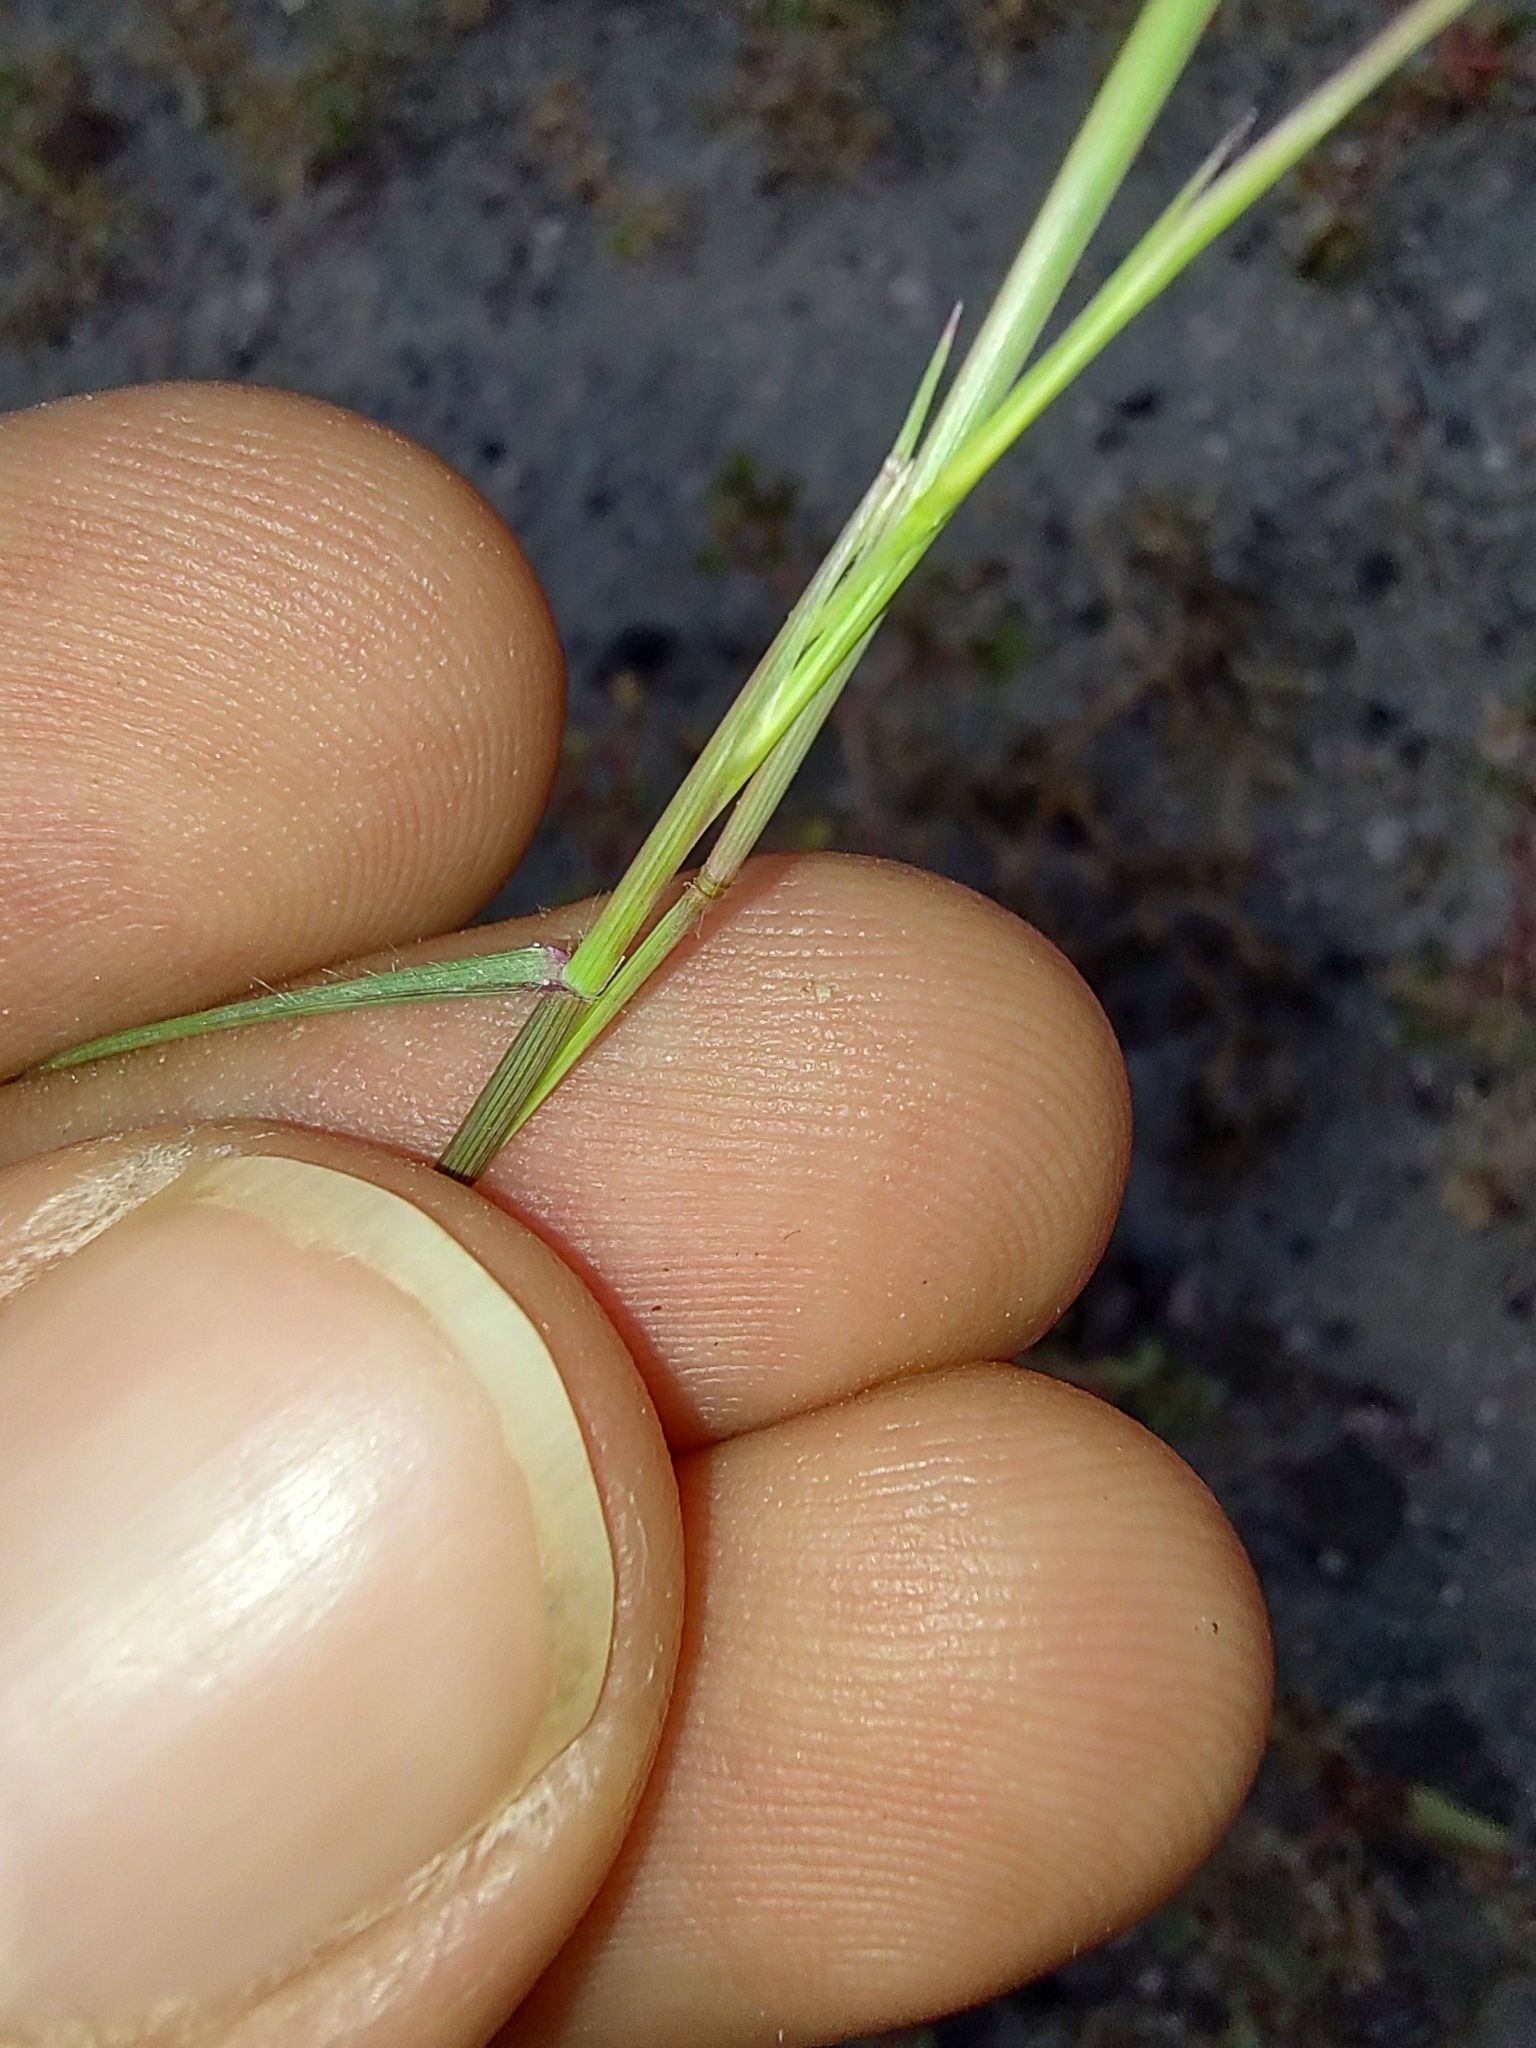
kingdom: Plantae
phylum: Tracheophyta
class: Liliopsida
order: Poales
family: Poaceae
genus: Bouteloua
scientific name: Bouteloua aristidoides
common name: Needle grama
